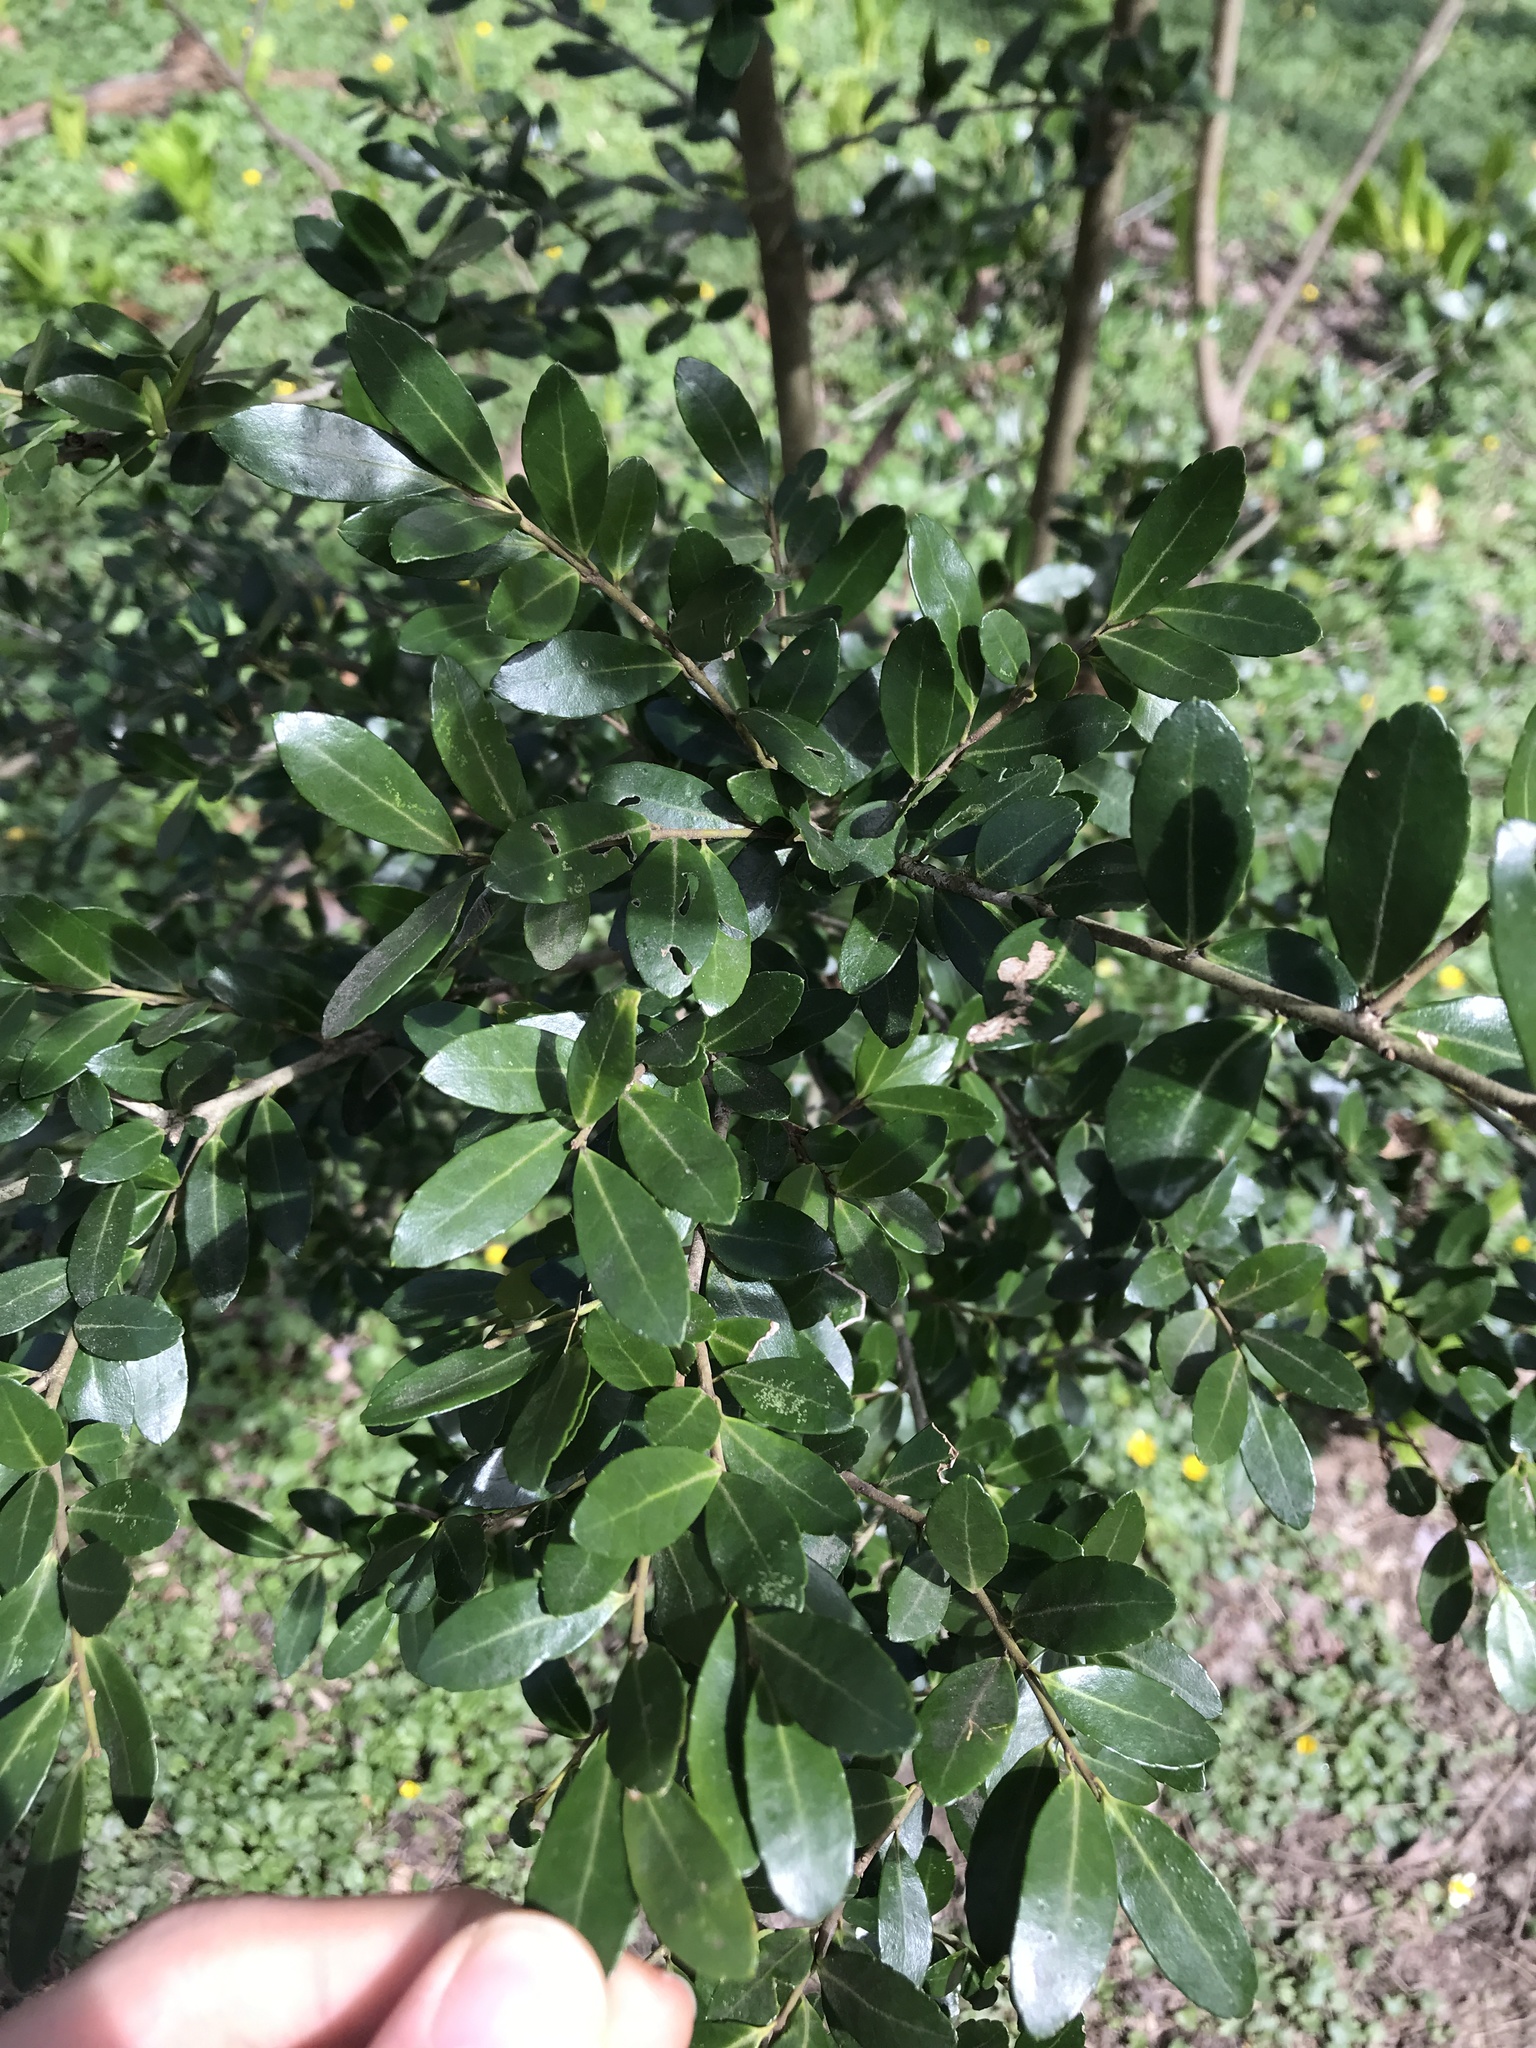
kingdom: Plantae
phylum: Tracheophyta
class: Magnoliopsida
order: Aquifoliales
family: Aquifoliaceae
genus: Ilex
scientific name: Ilex crenata
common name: Japanese holly
